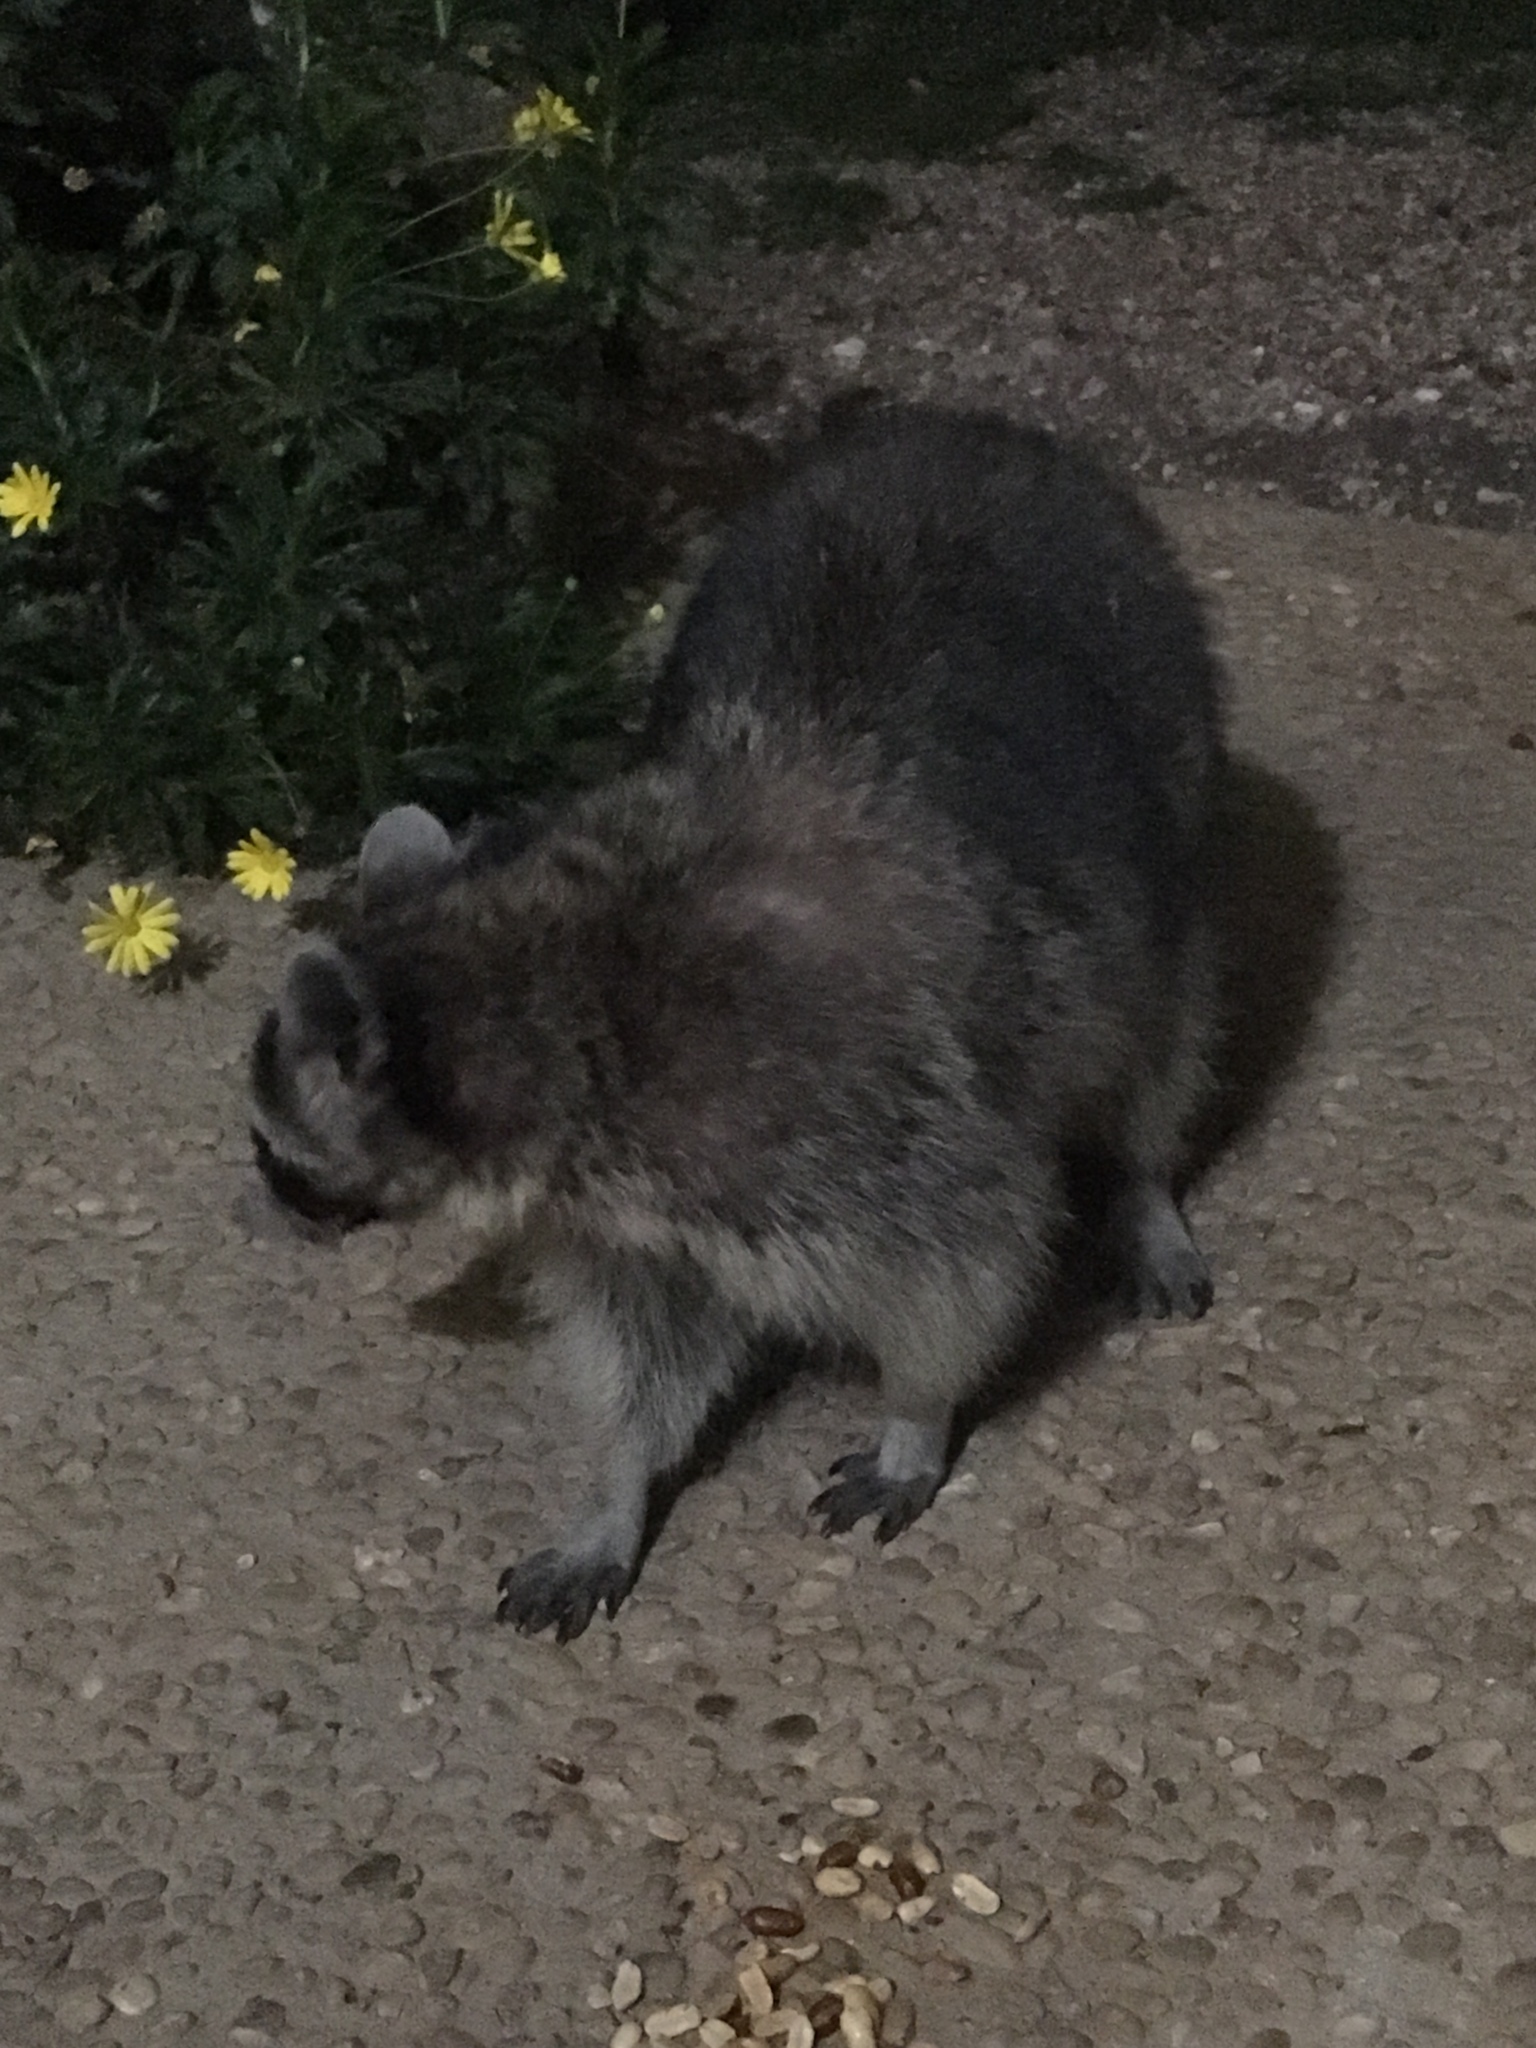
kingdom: Animalia
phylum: Chordata
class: Mammalia
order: Carnivora
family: Procyonidae
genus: Procyon
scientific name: Procyon lotor
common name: Raccoon
